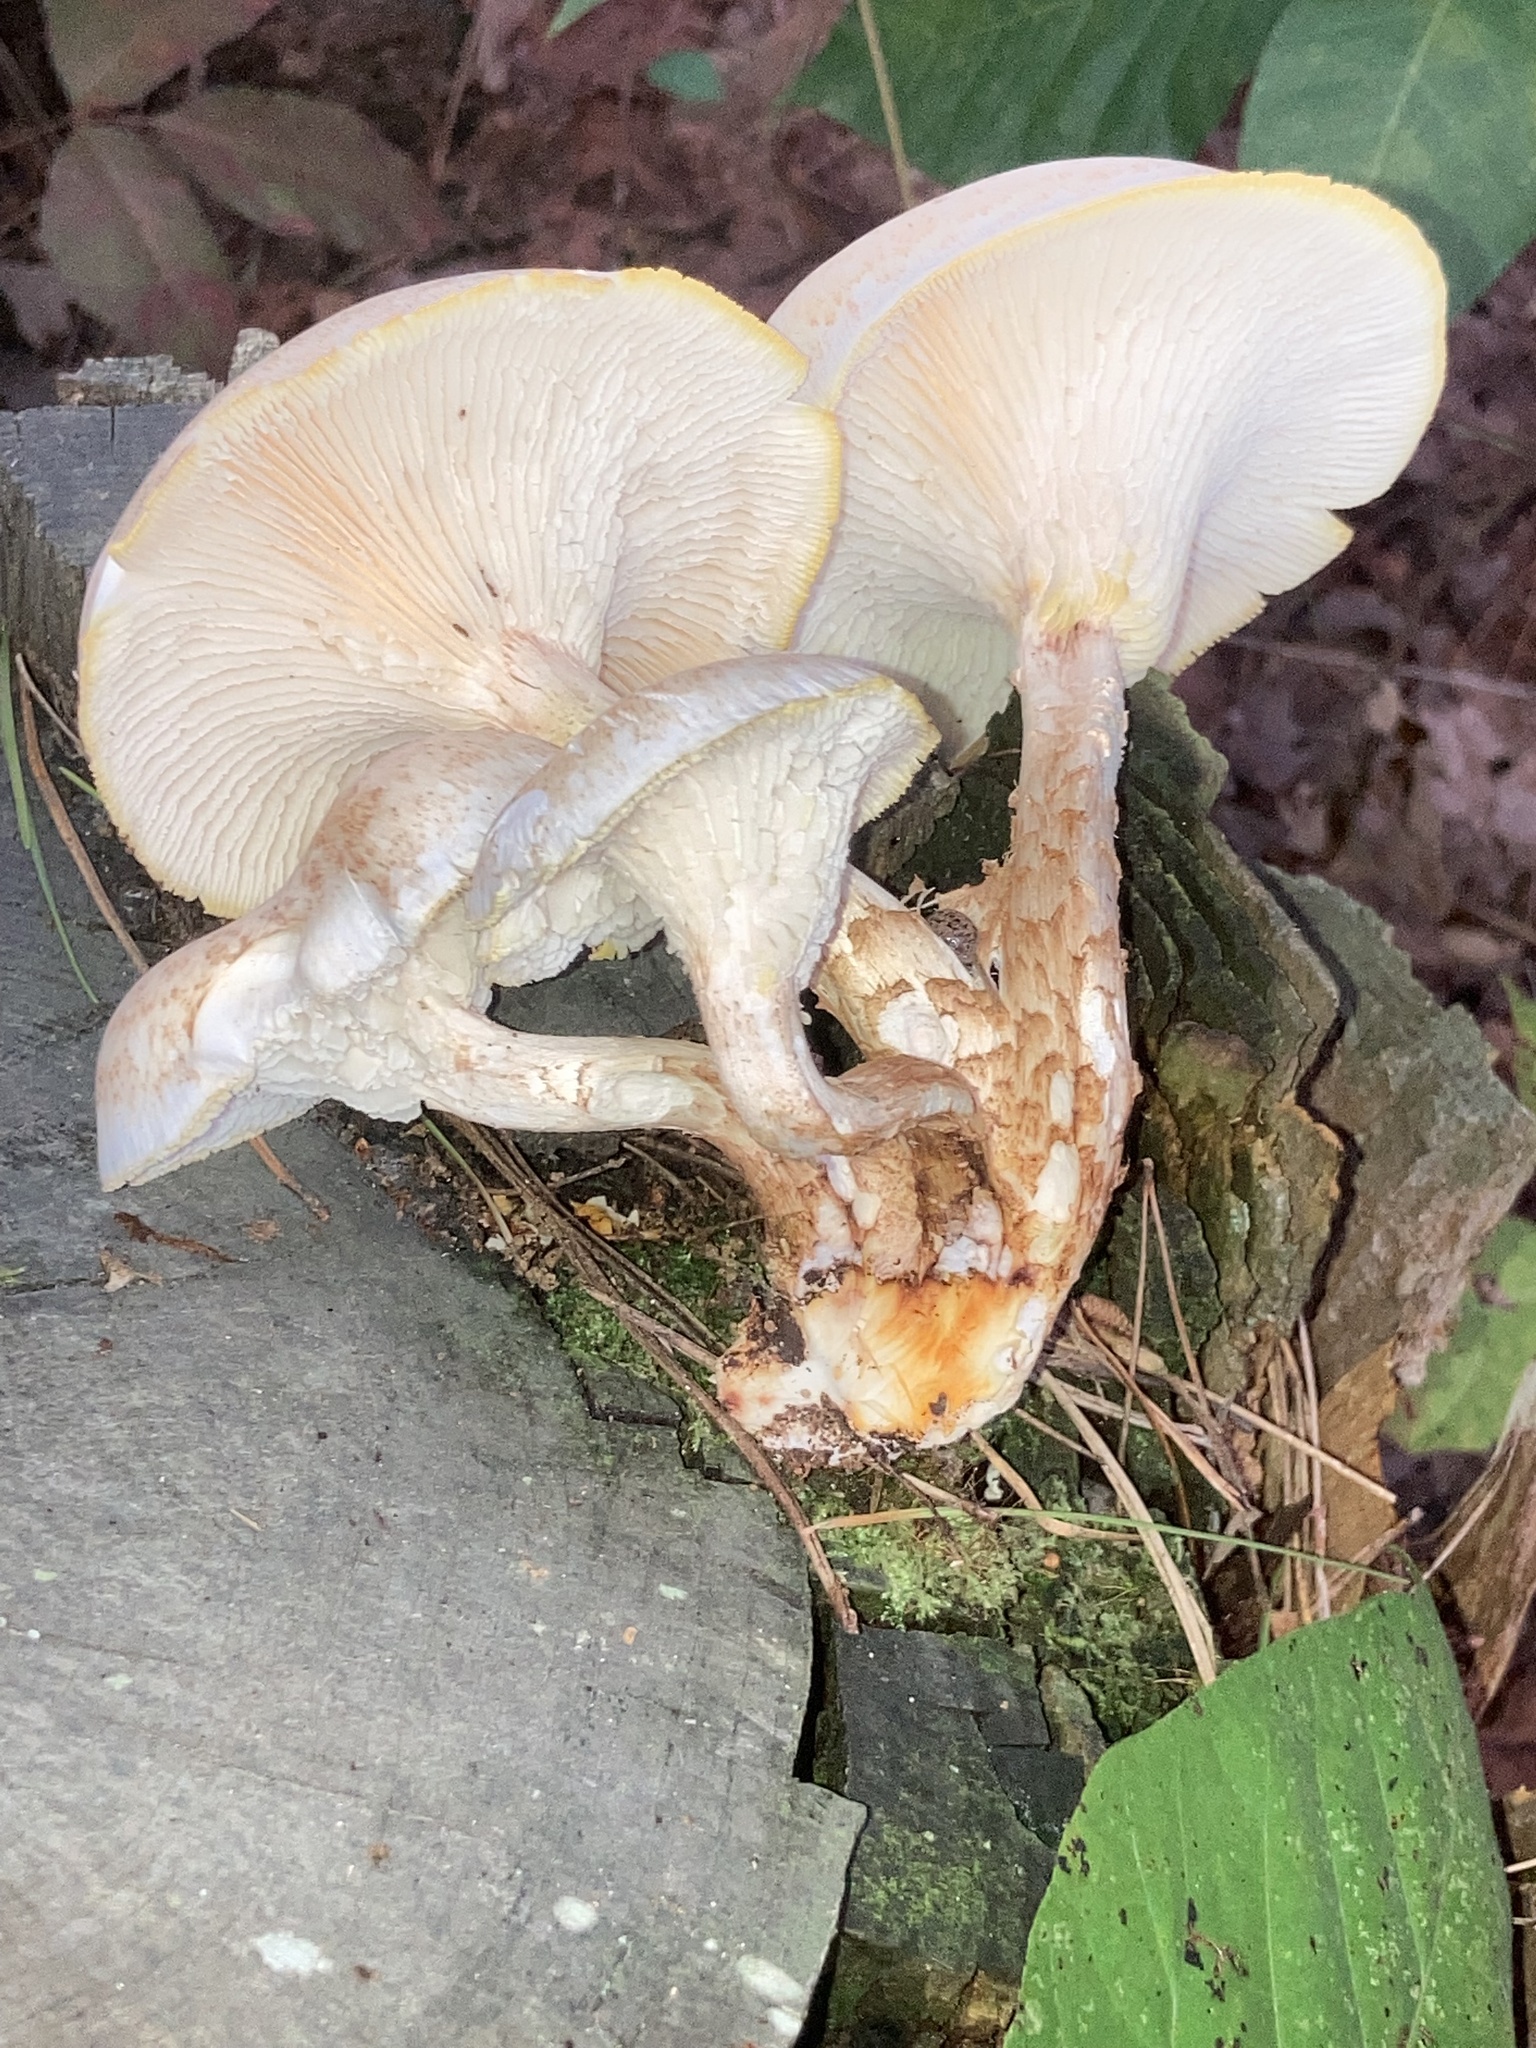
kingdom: Fungi
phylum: Basidiomycota
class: Agaricomycetes
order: Gloeophyllales
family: Gloeophyllaceae
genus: Neolentinus
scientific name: Neolentinus lepideus
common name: Scaly sawgill
